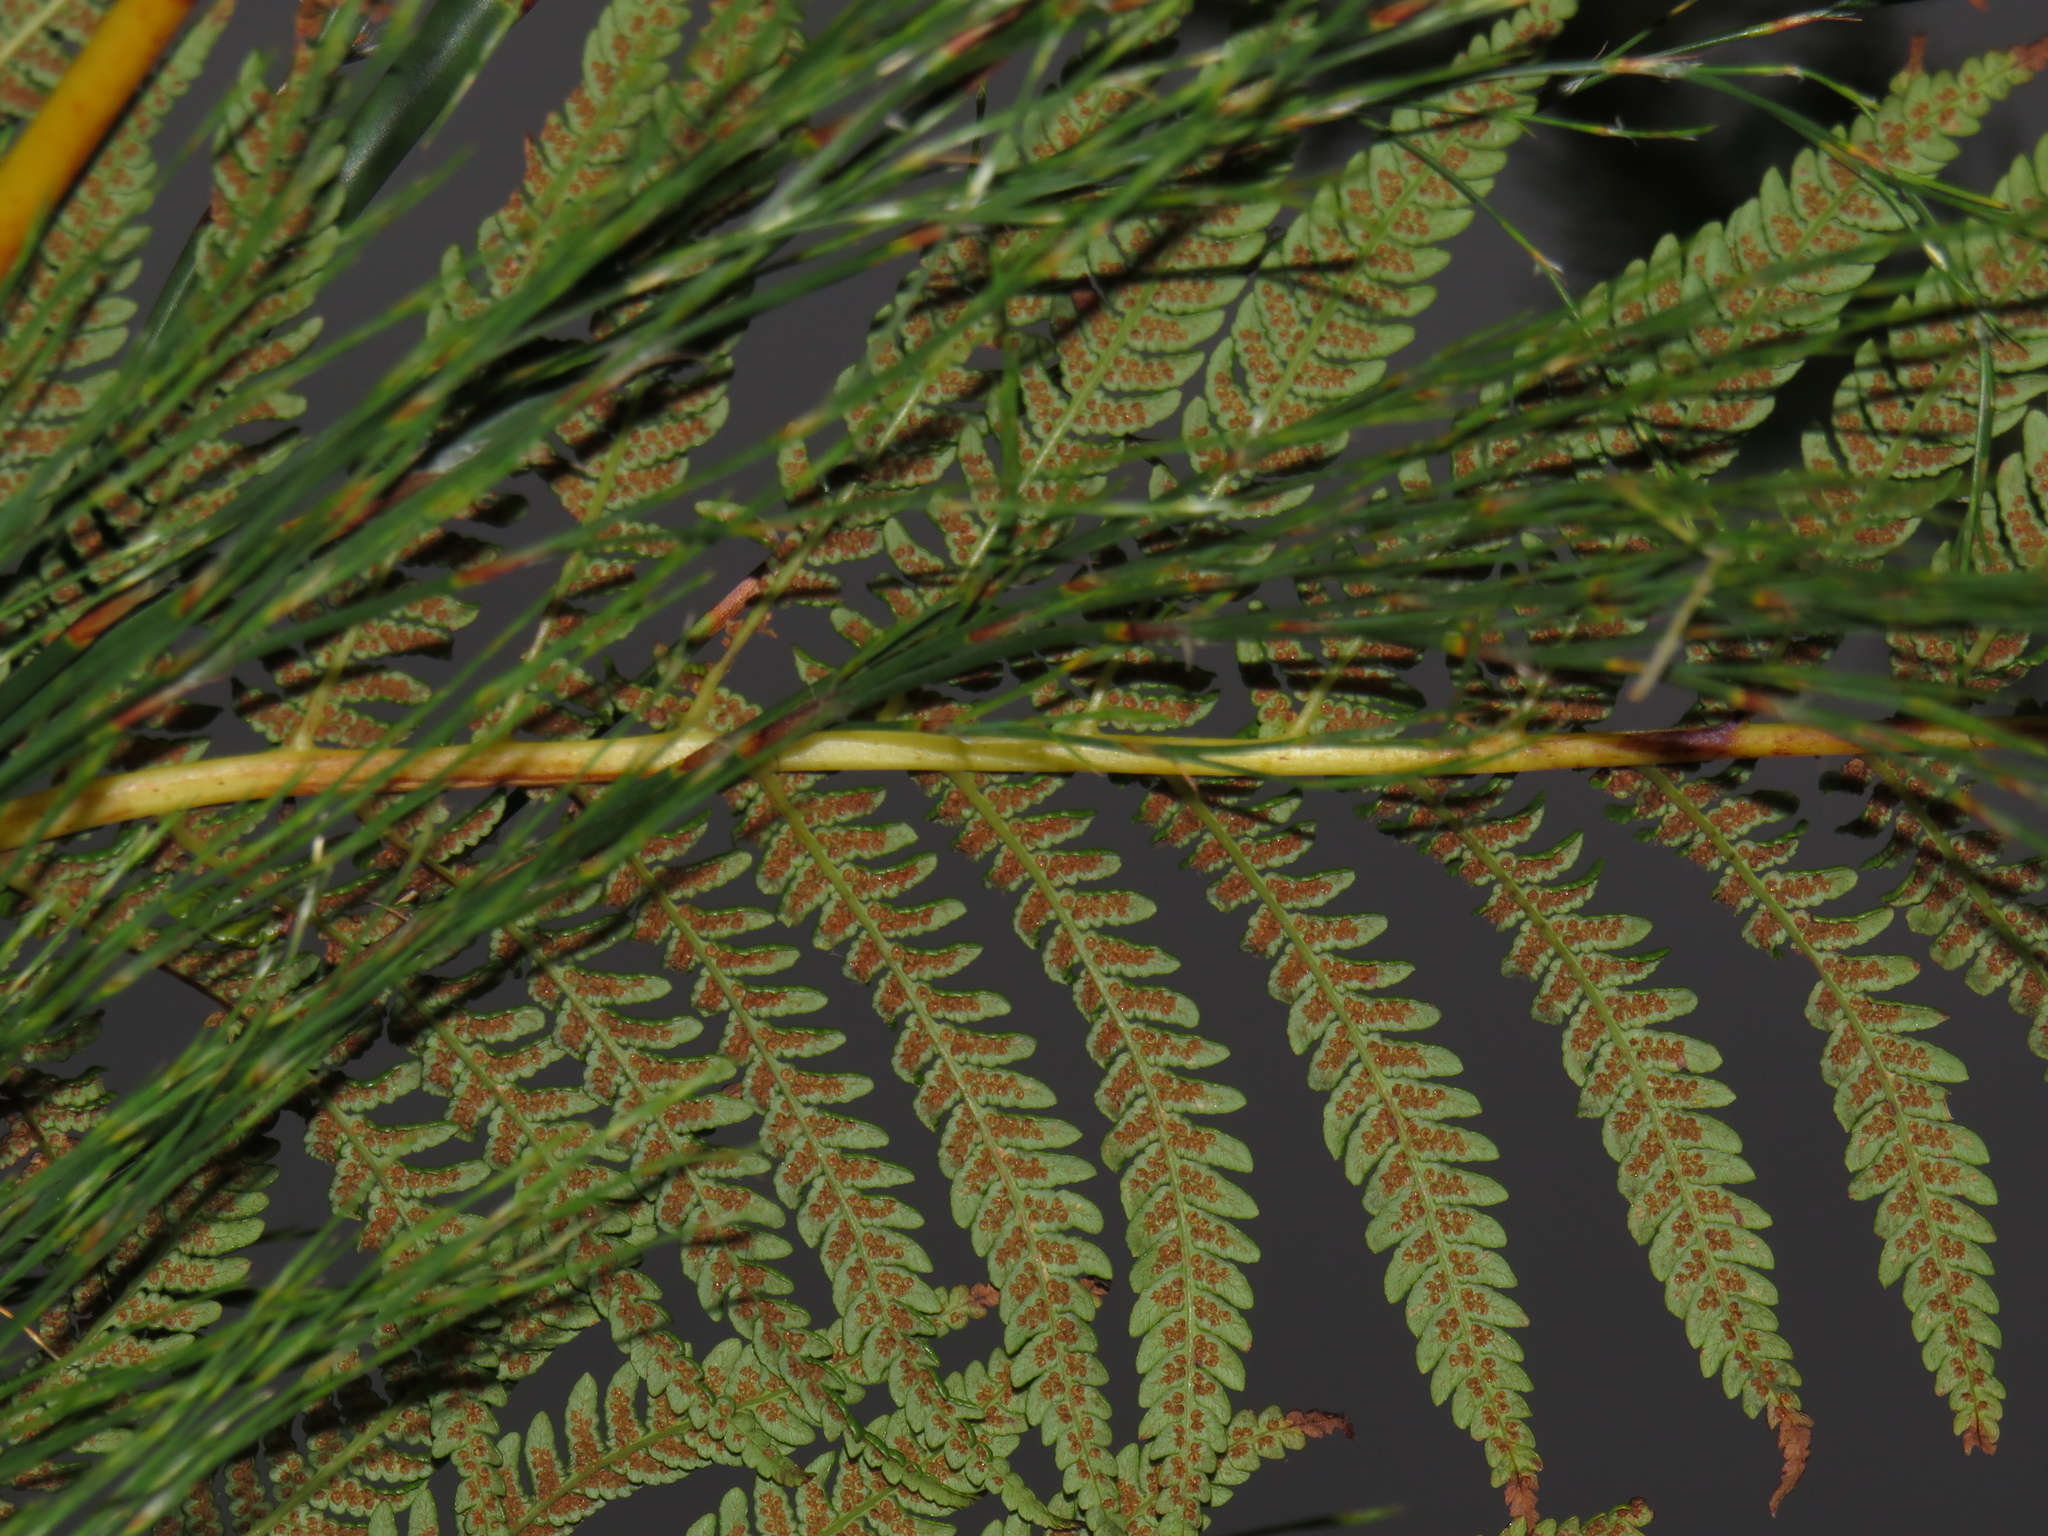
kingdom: Plantae
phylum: Tracheophyta
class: Polypodiopsida
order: Cyatheales
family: Cyatheaceae
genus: Alsophila
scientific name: Alsophila dregei
